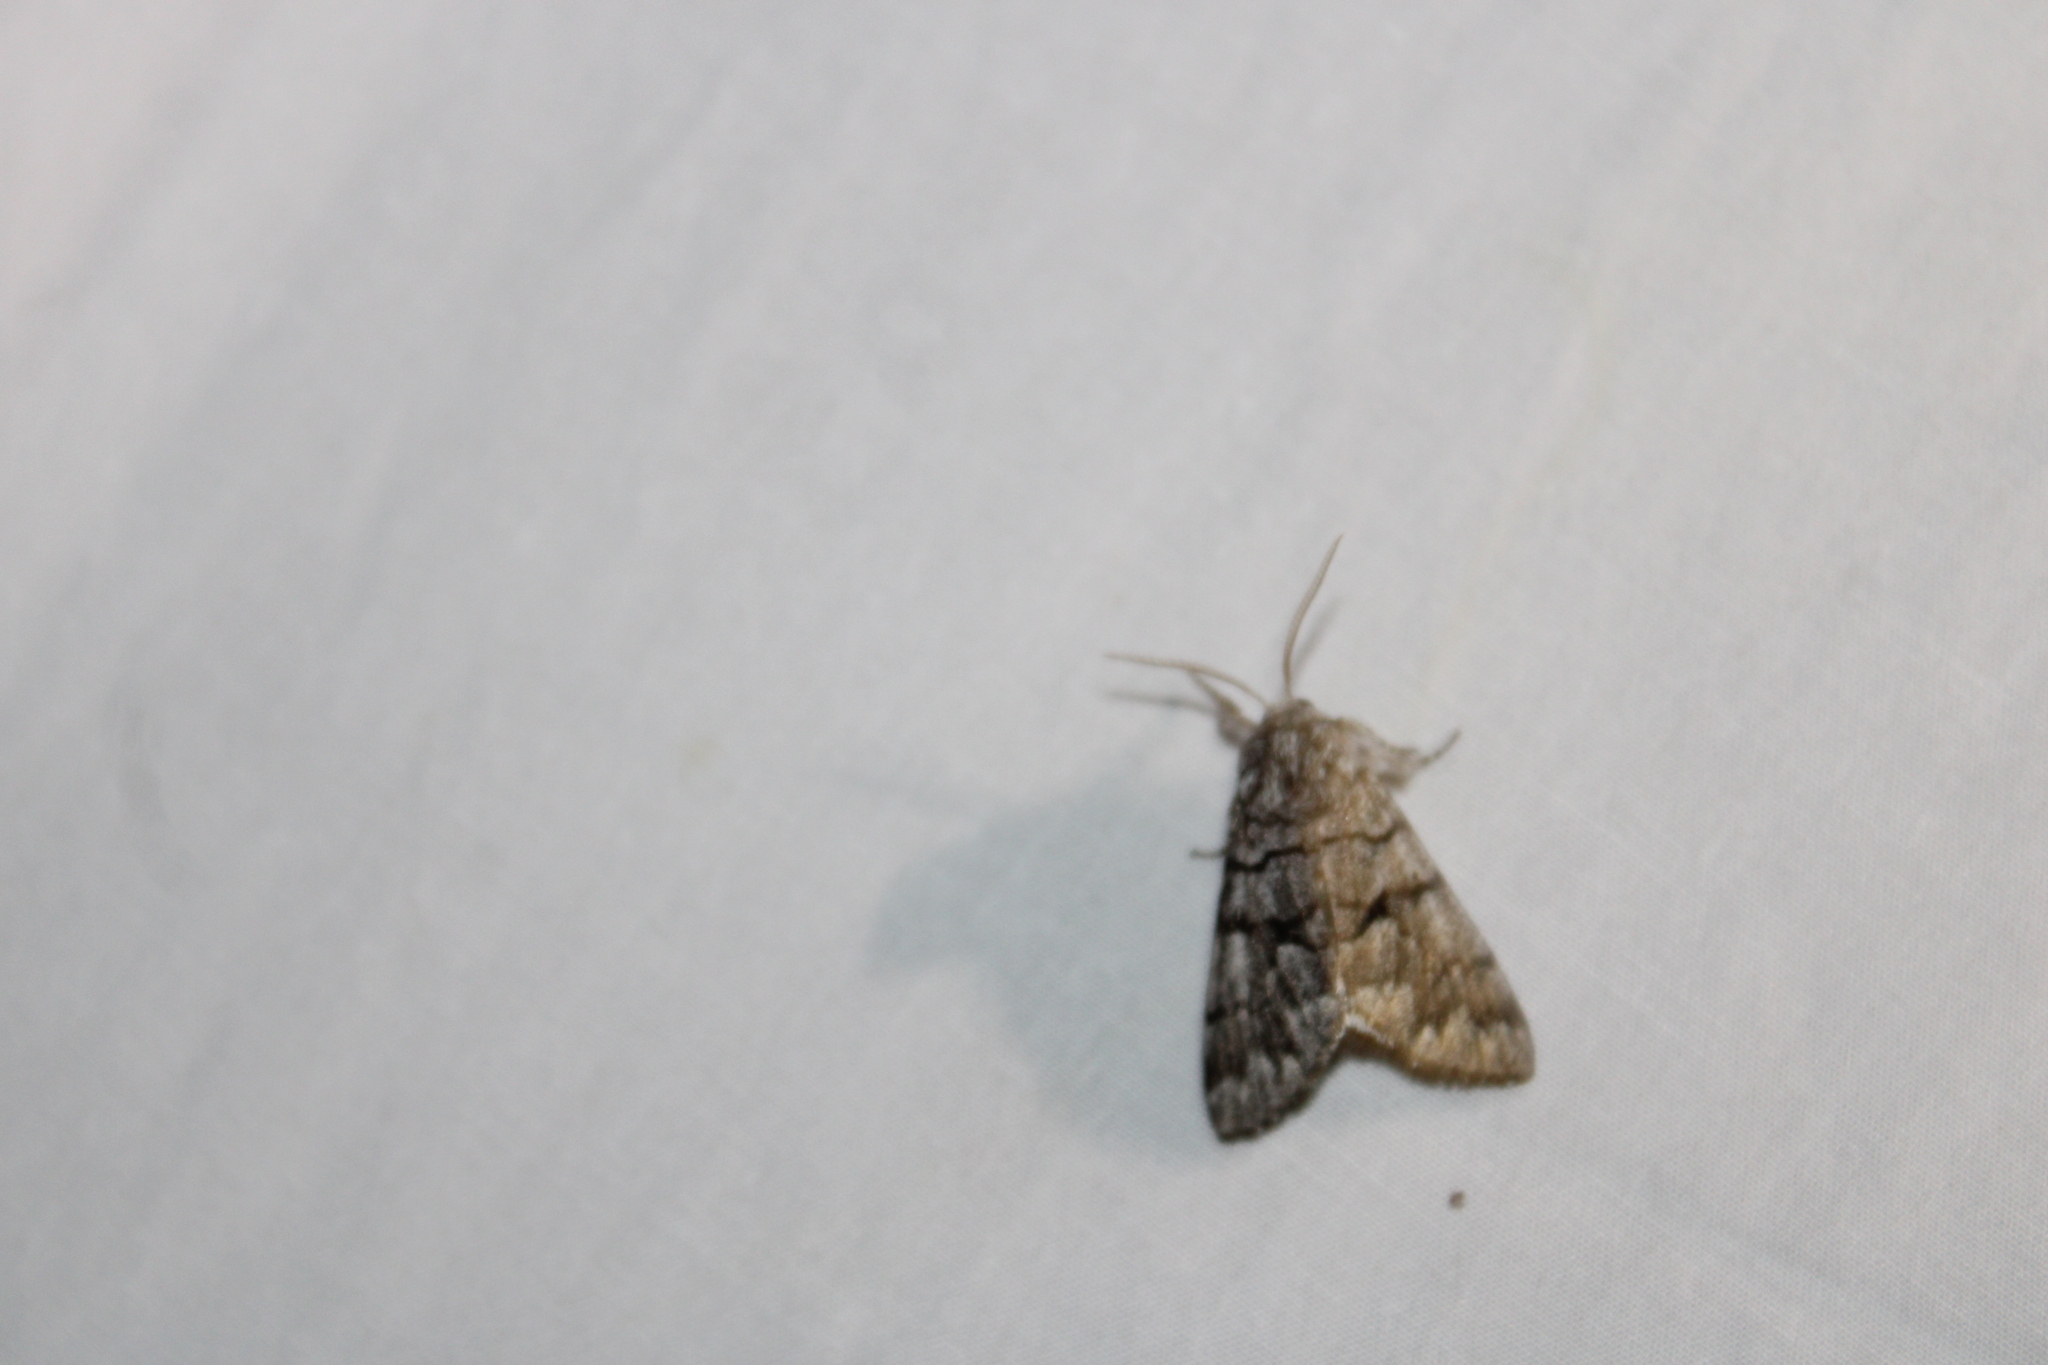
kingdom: Animalia
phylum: Arthropoda
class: Insecta
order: Lepidoptera
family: Noctuidae
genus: Panthea
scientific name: Panthea furcilla
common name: Eastern panthea moth
